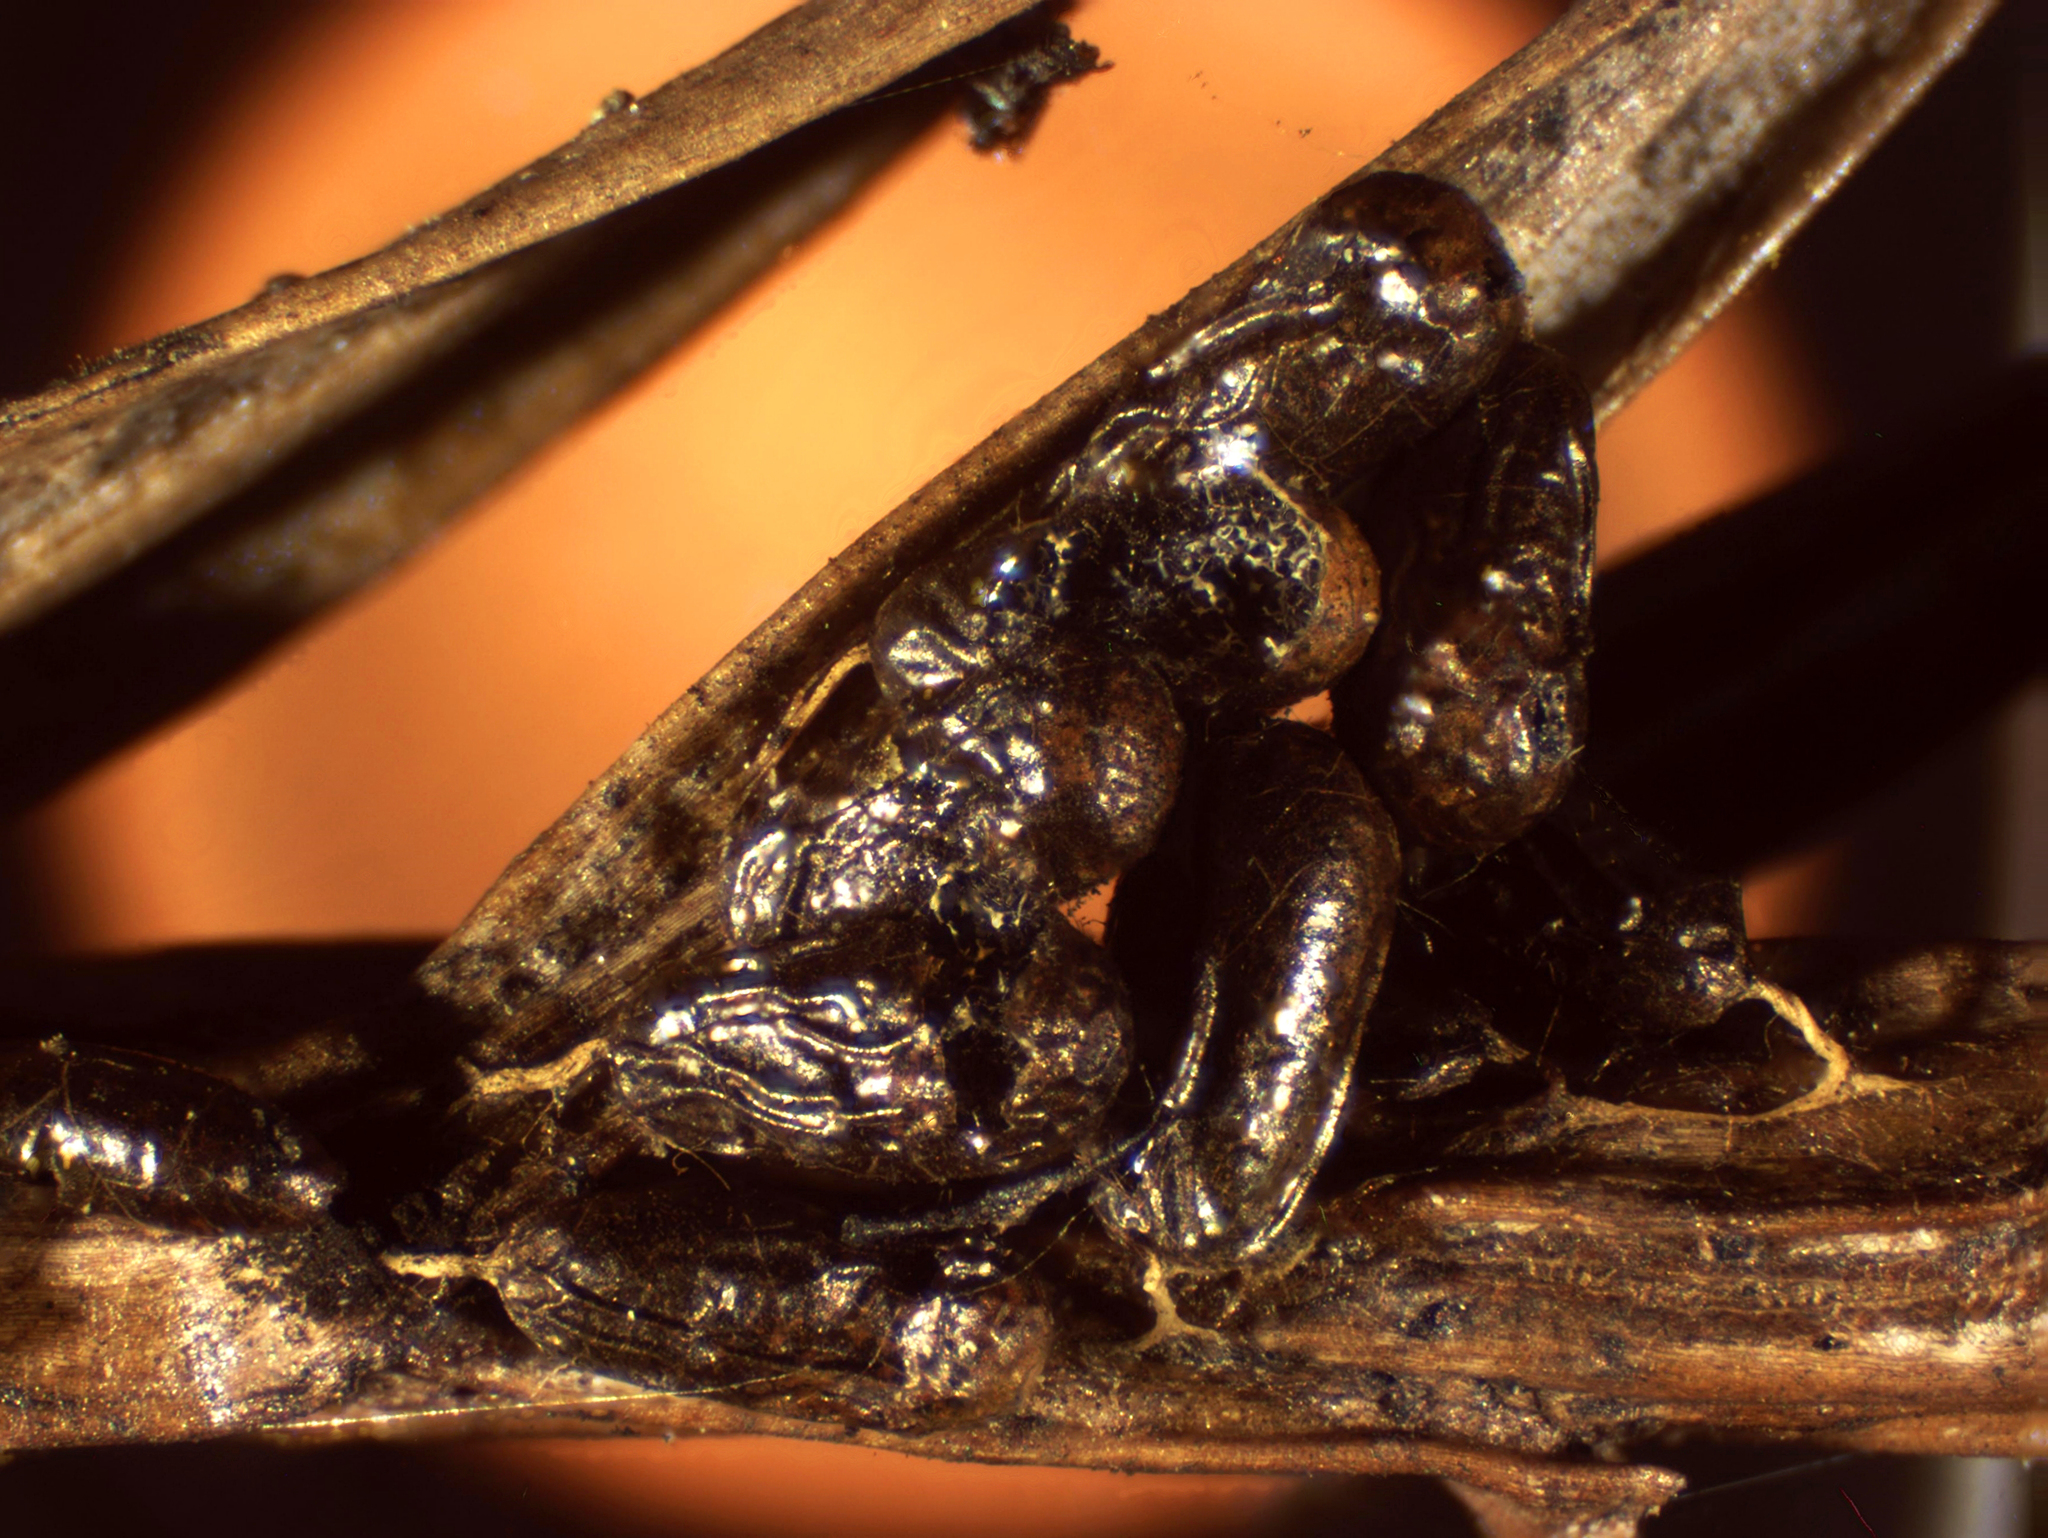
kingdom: Protozoa
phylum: Mycetozoa
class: Myxomycetes
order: Physarales
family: Physaraceae
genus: Leocarpus
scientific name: Leocarpus fragilis
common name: Insect-egg slime
